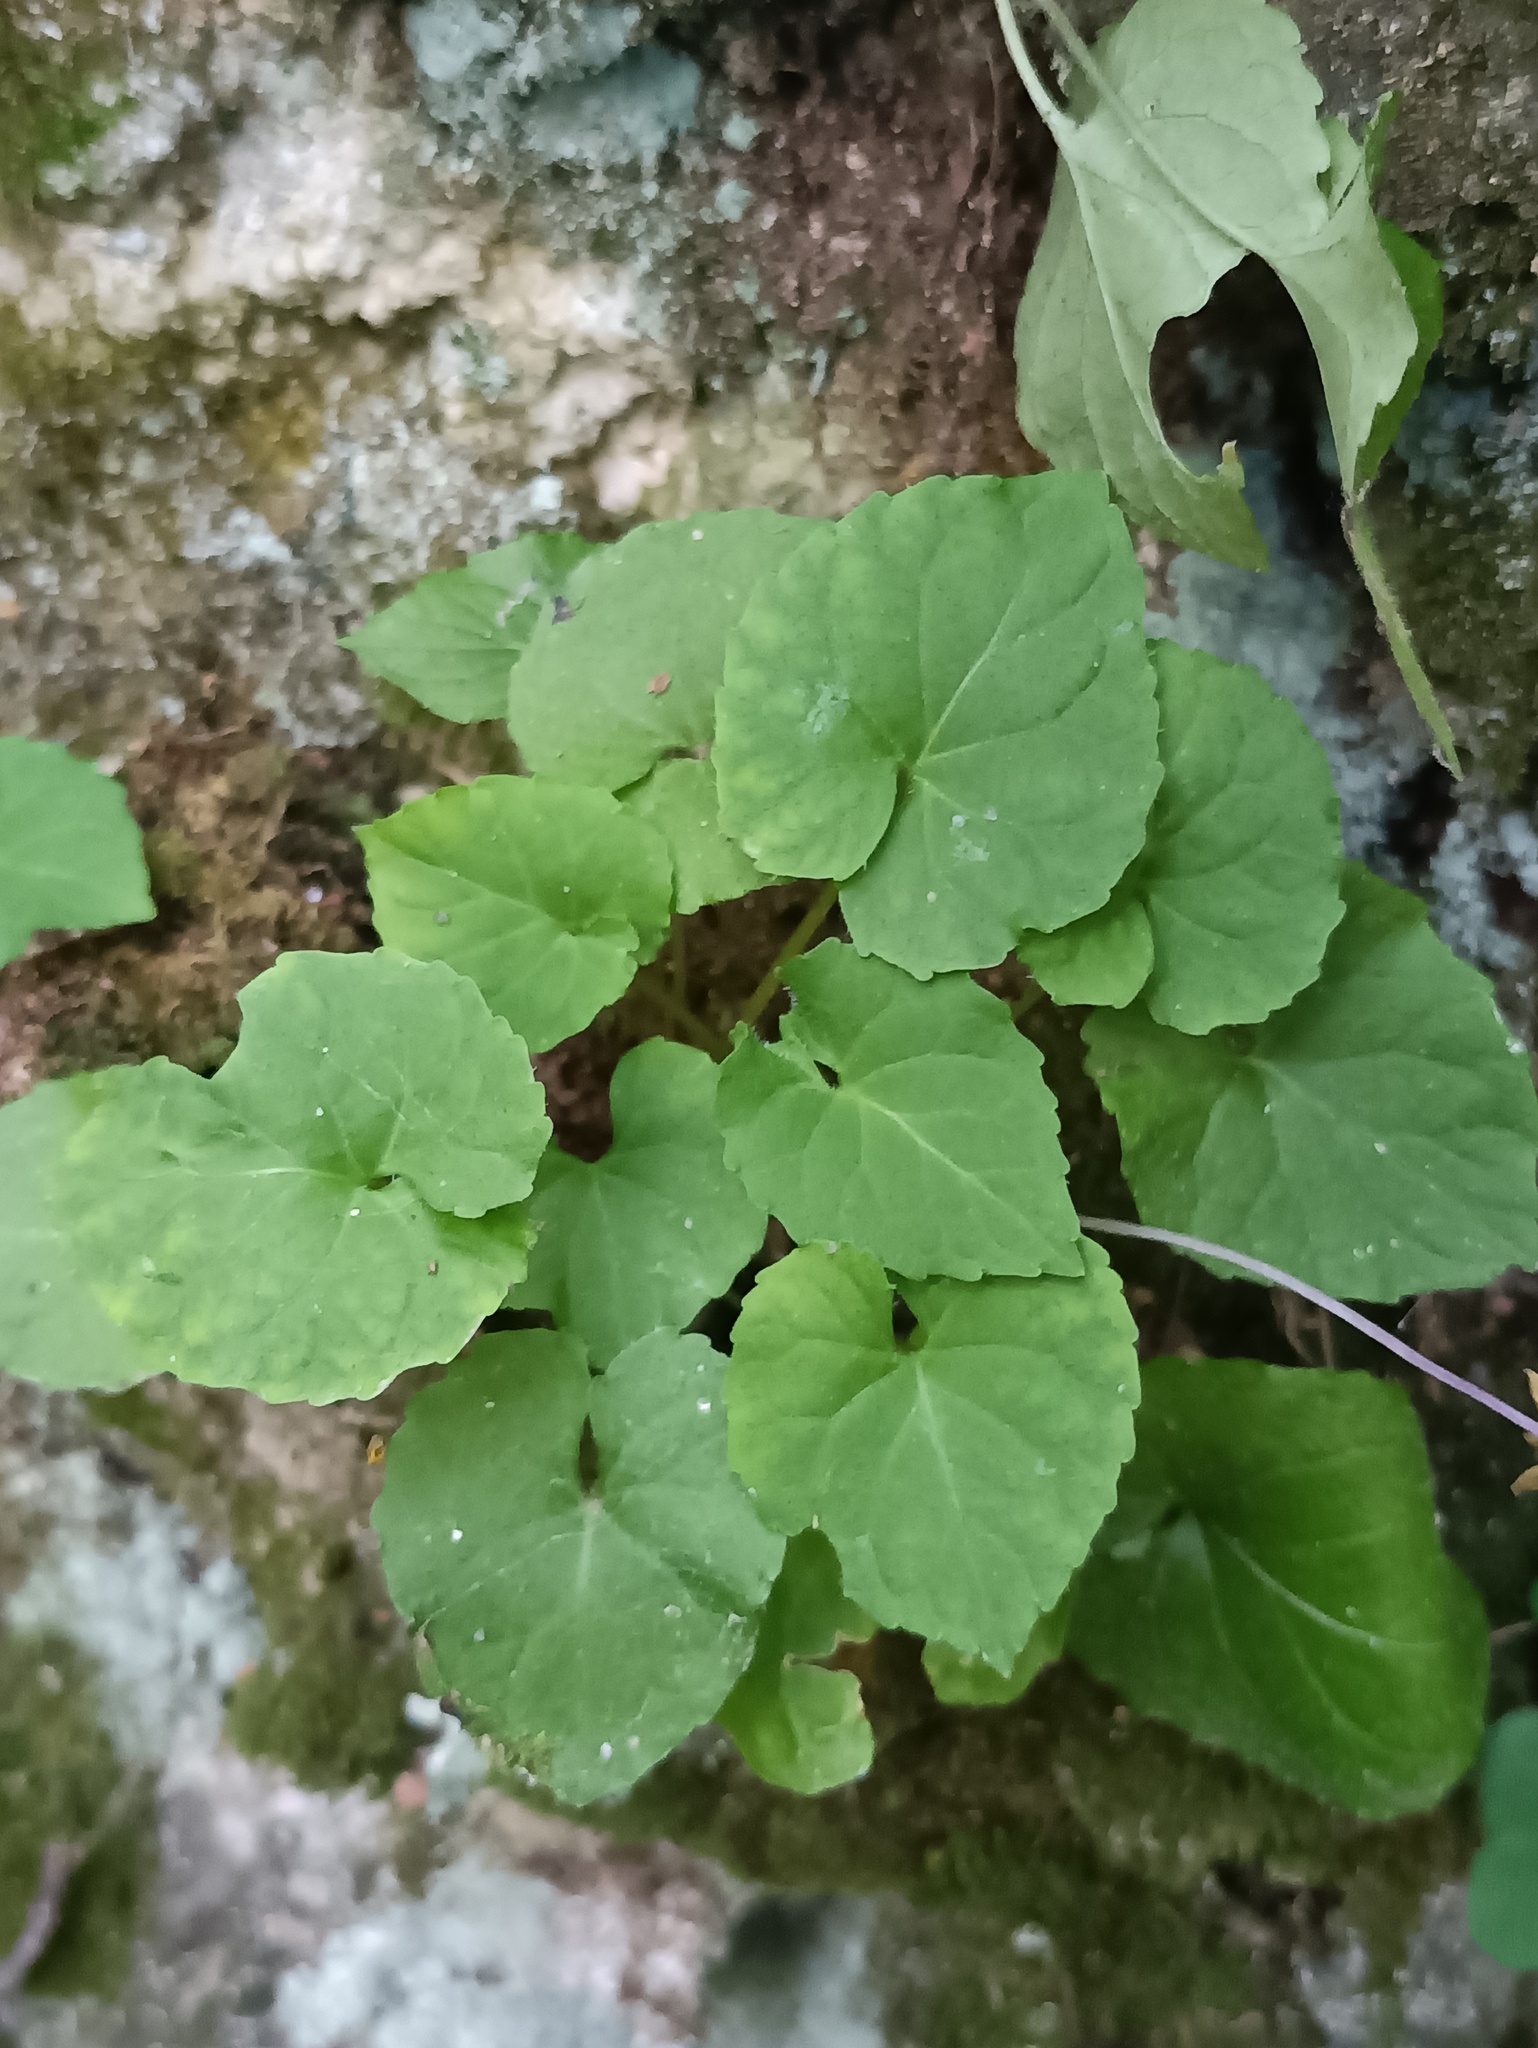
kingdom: Plantae
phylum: Tracheophyta
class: Magnoliopsida
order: Malpighiales
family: Violaceae
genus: Viola
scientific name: Viola selkirkii
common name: Selkirk's violet
